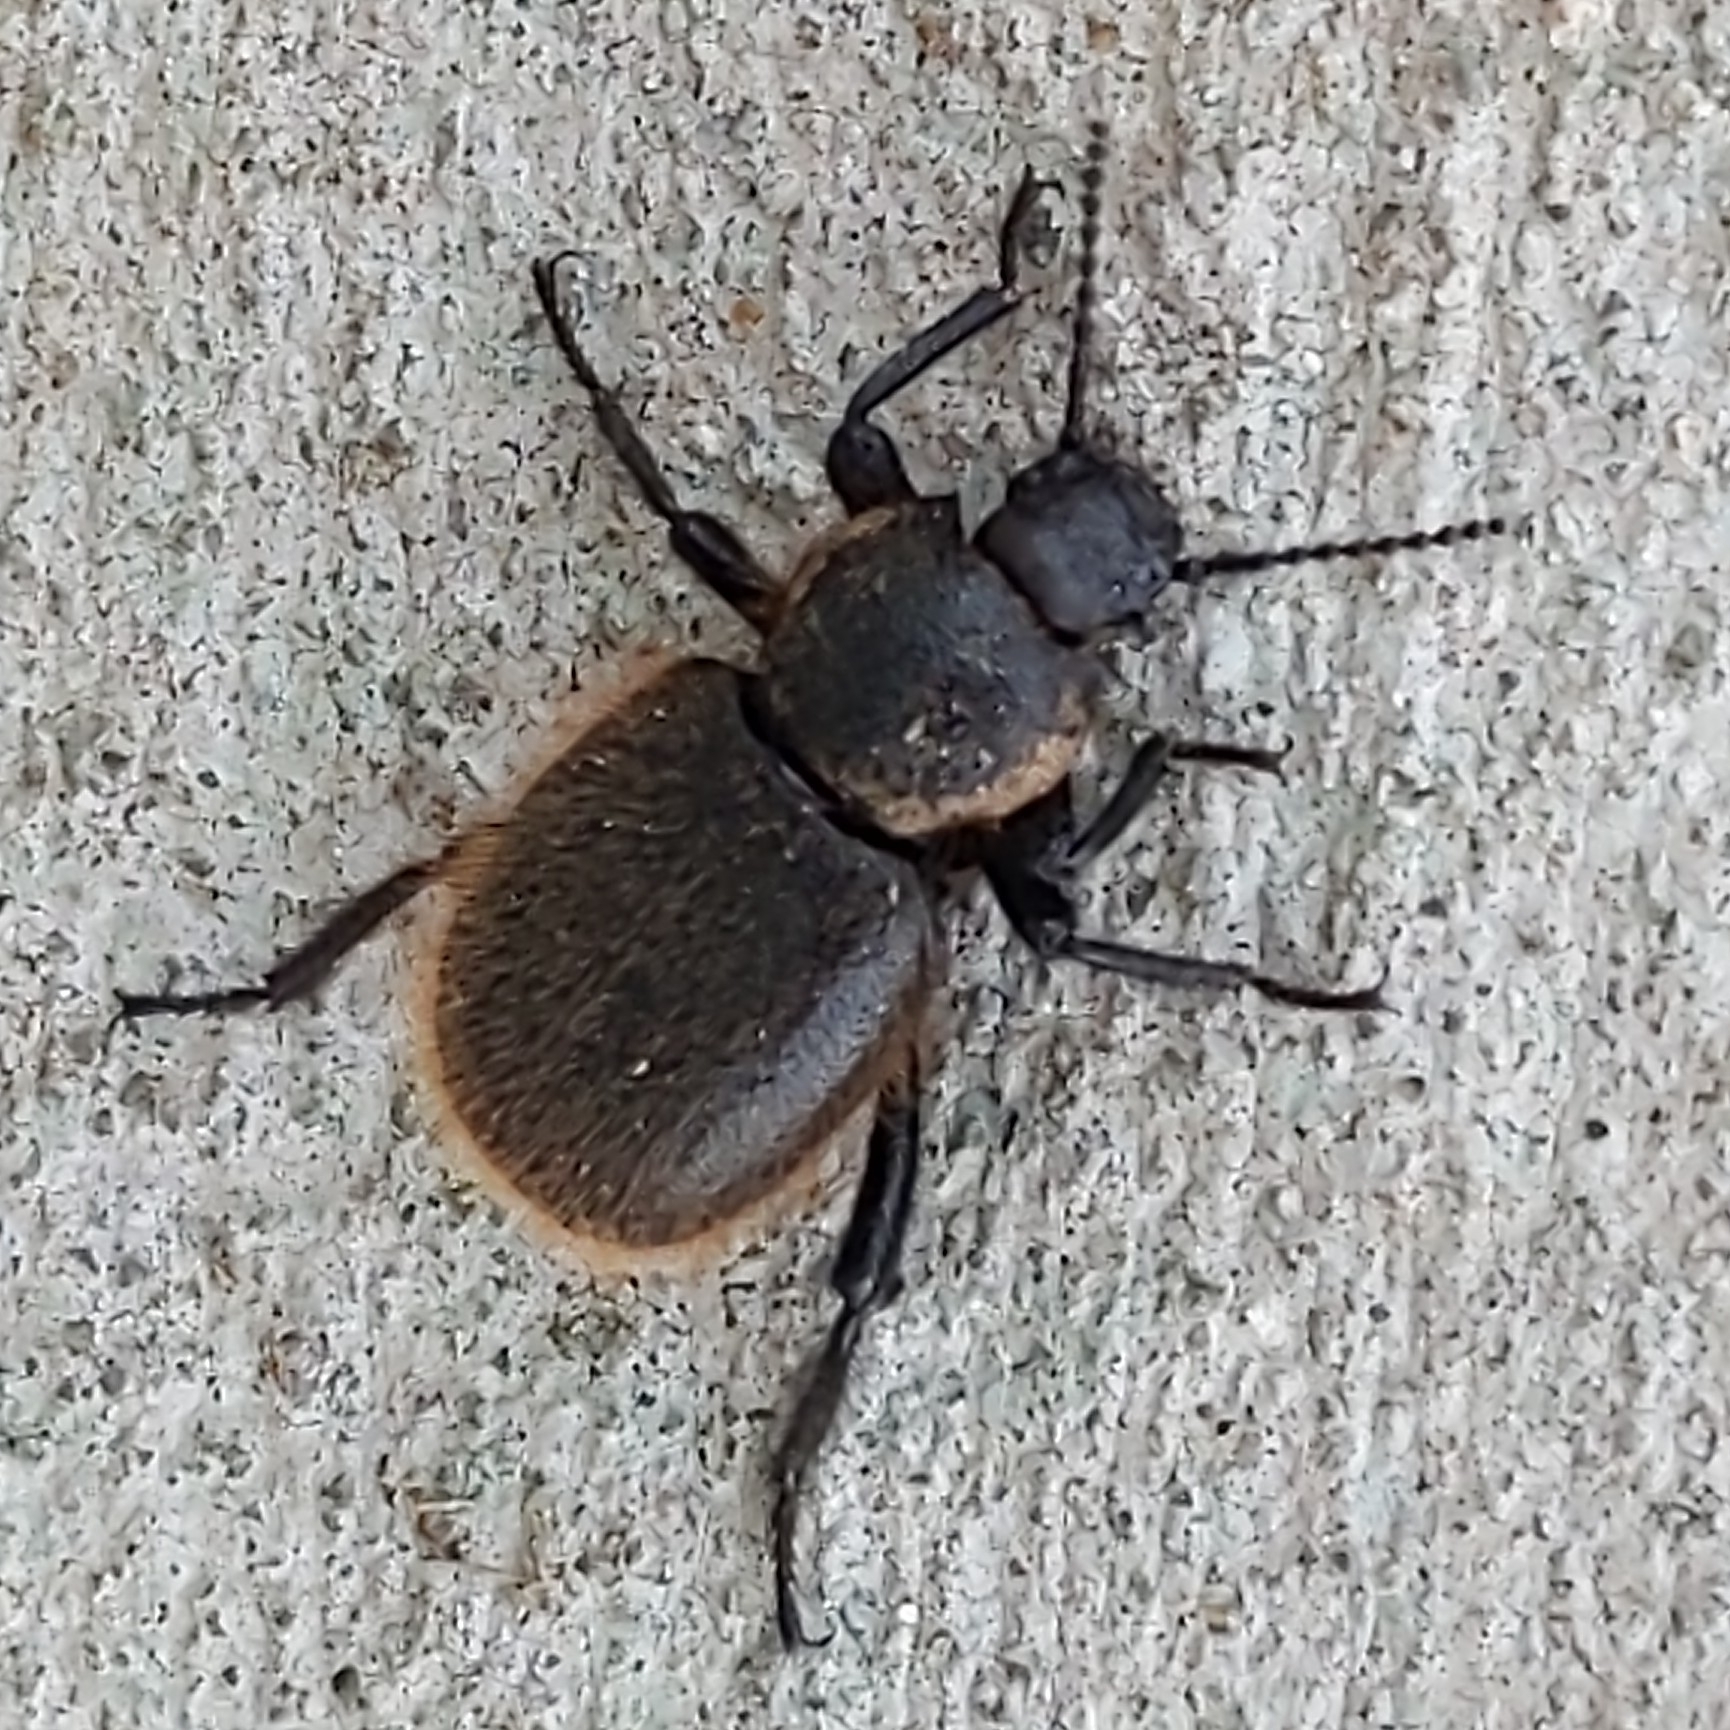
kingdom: Animalia
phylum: Arthropoda
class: Insecta
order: Coleoptera
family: Tenebrionidae
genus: Eleodes
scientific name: Eleodes osculans
